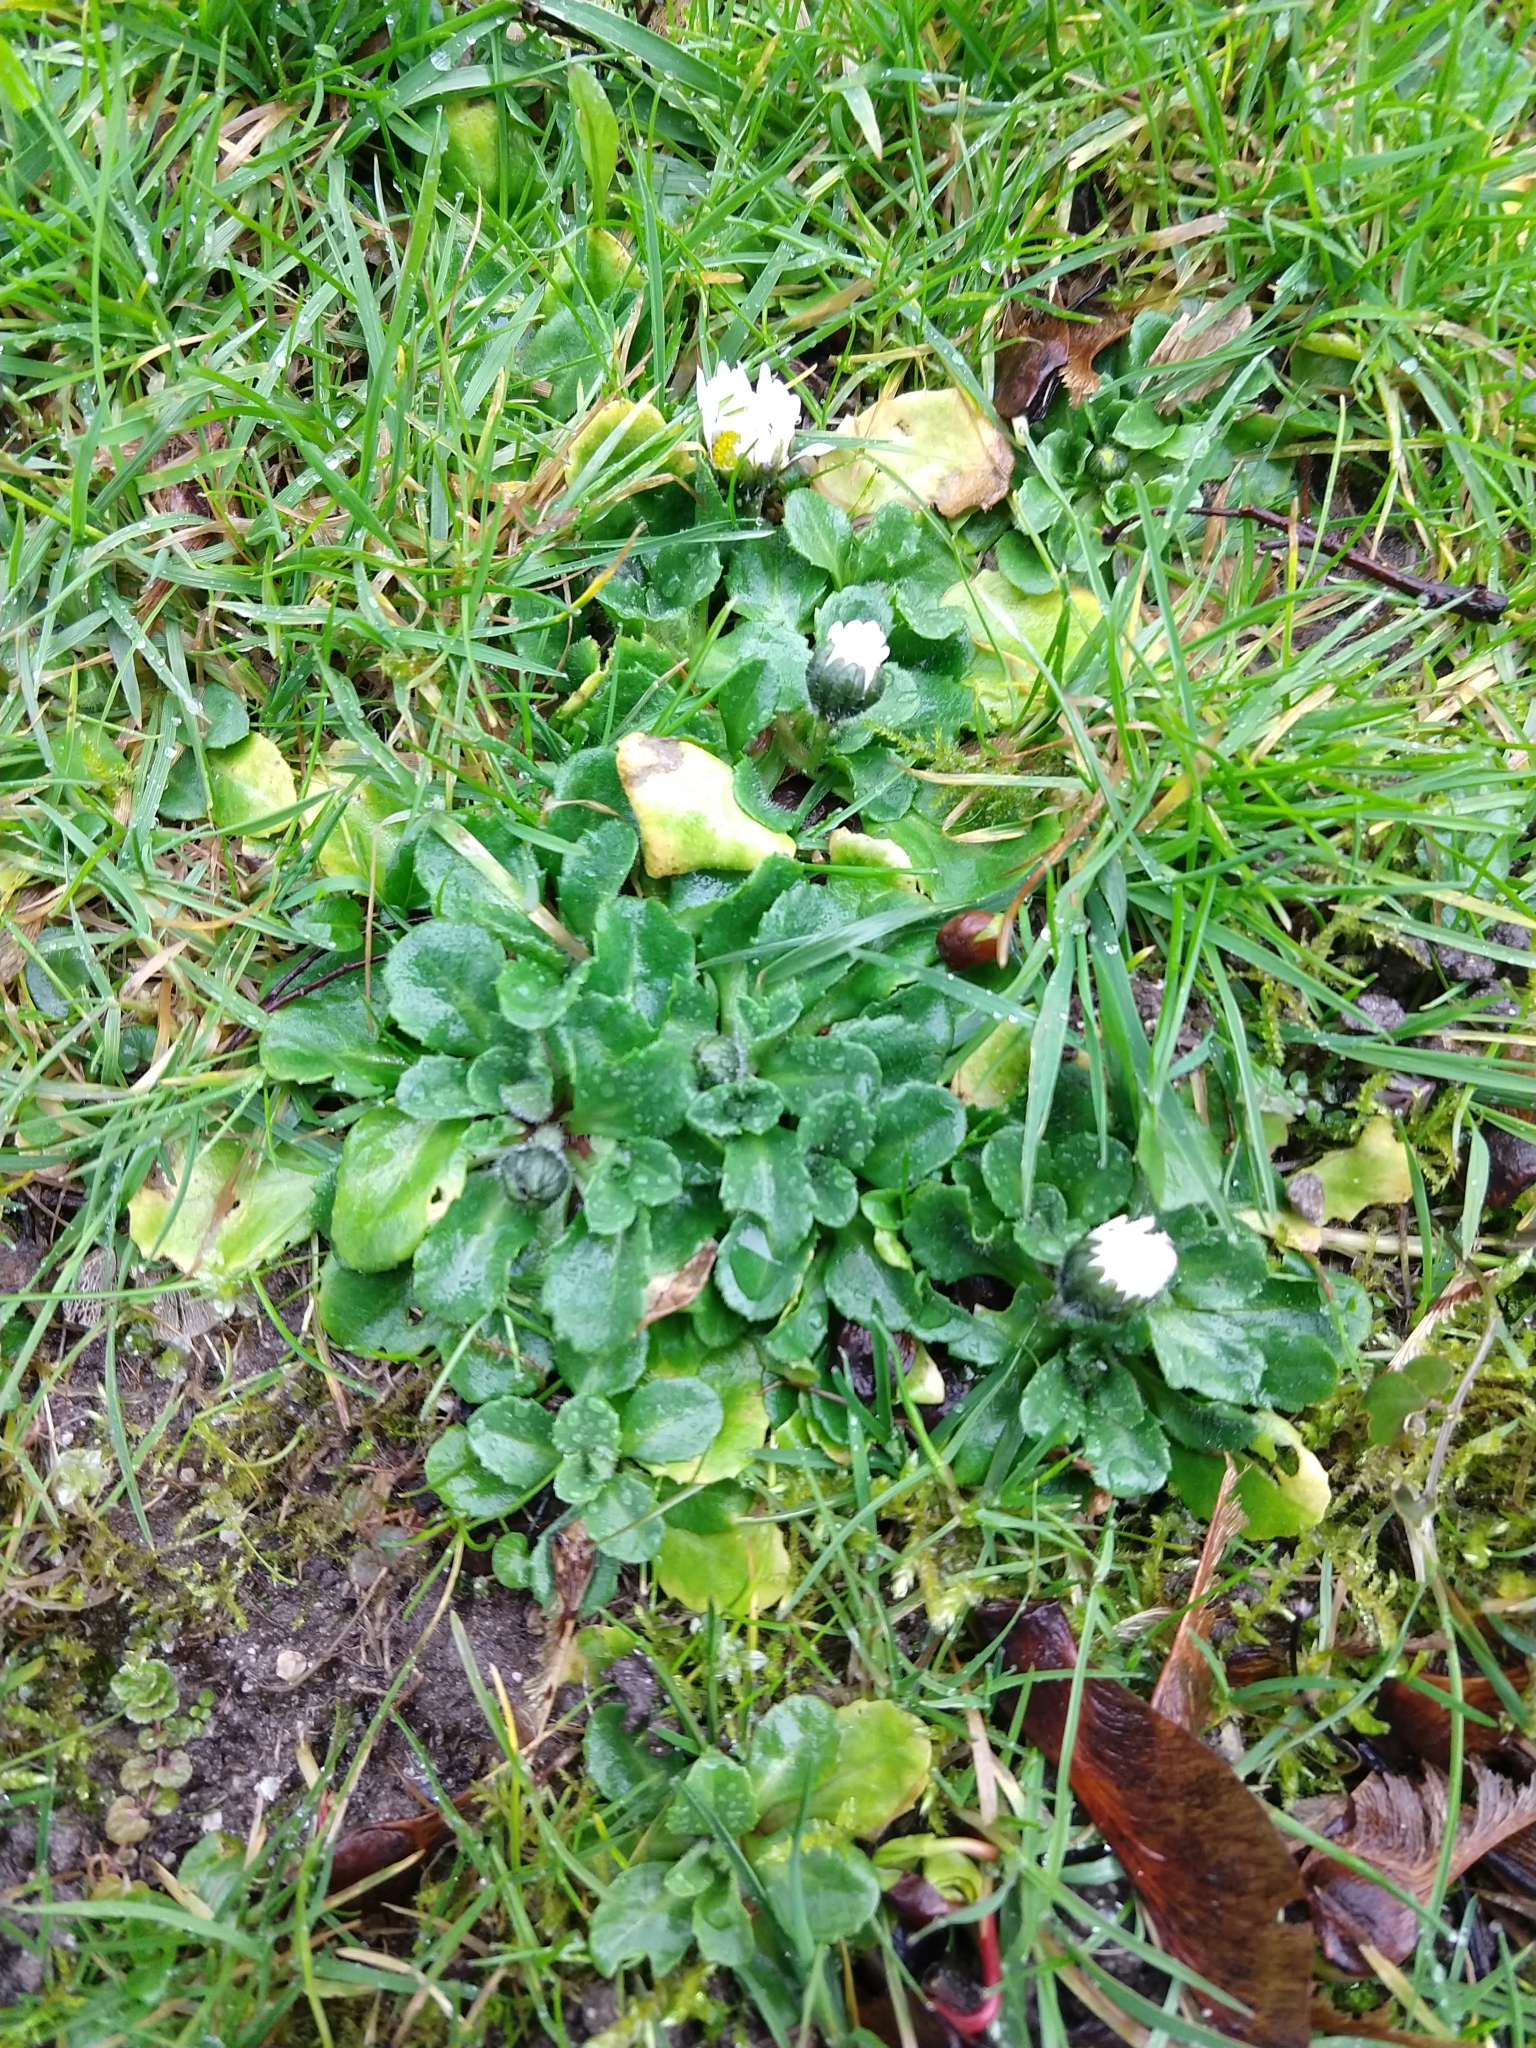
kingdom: Plantae
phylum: Tracheophyta
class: Magnoliopsida
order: Asterales
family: Asteraceae
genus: Bellis
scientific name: Bellis perennis
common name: Lawndaisy
